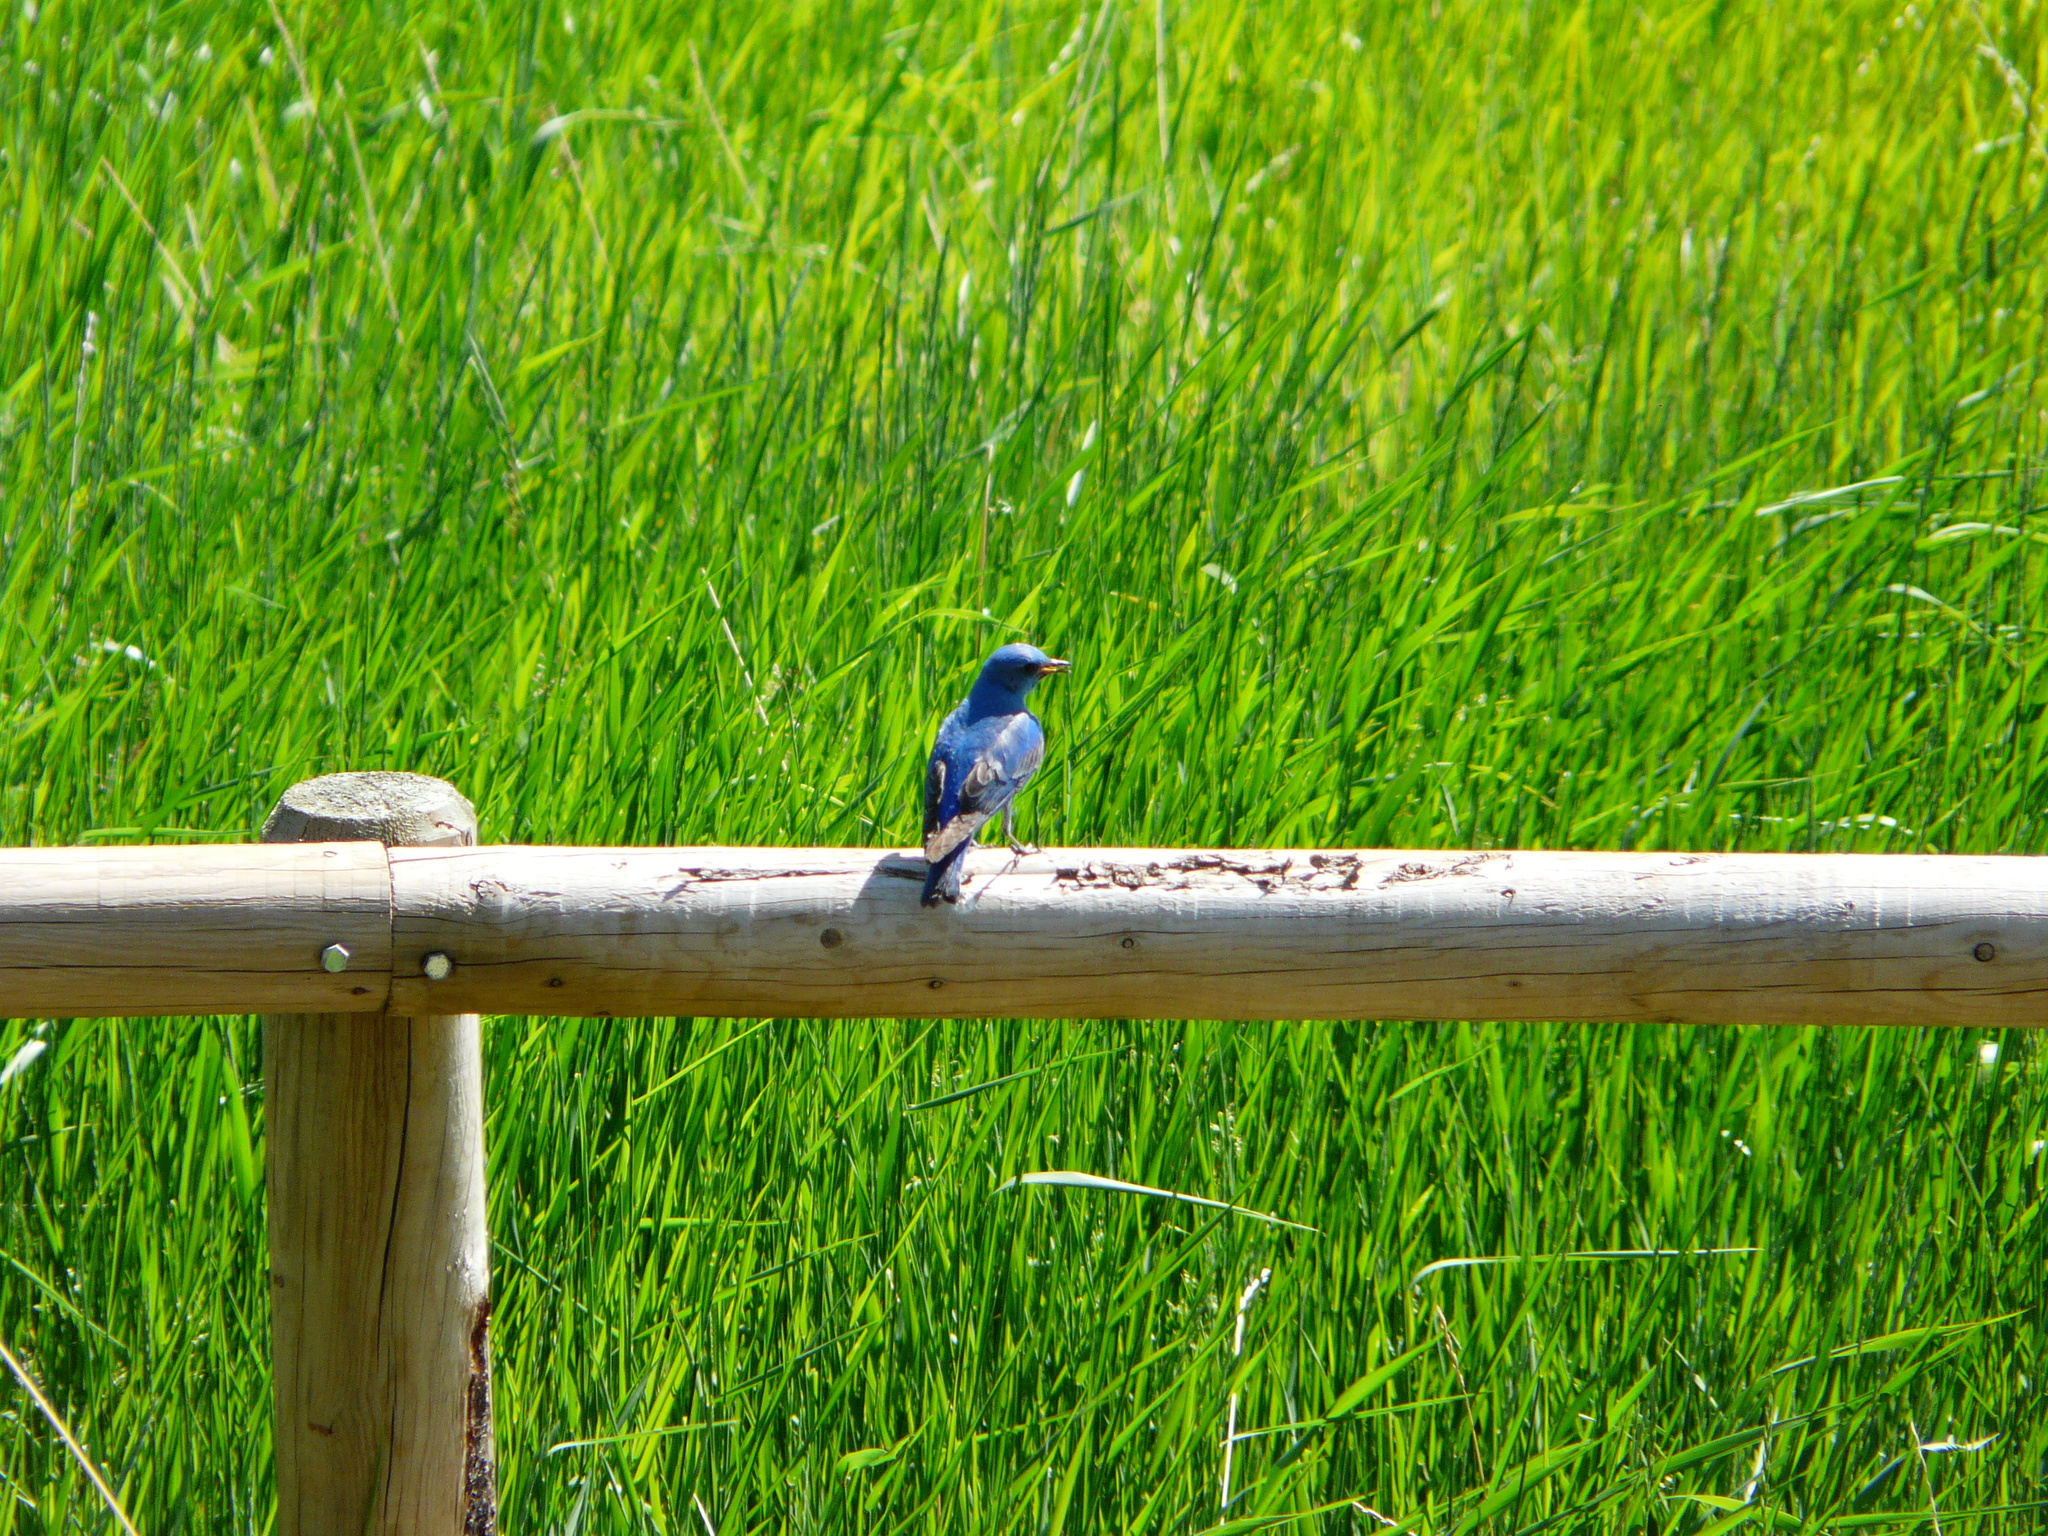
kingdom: Animalia
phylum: Chordata
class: Aves
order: Passeriformes
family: Turdidae
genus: Sialia
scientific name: Sialia currucoides
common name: Mountain bluebird
